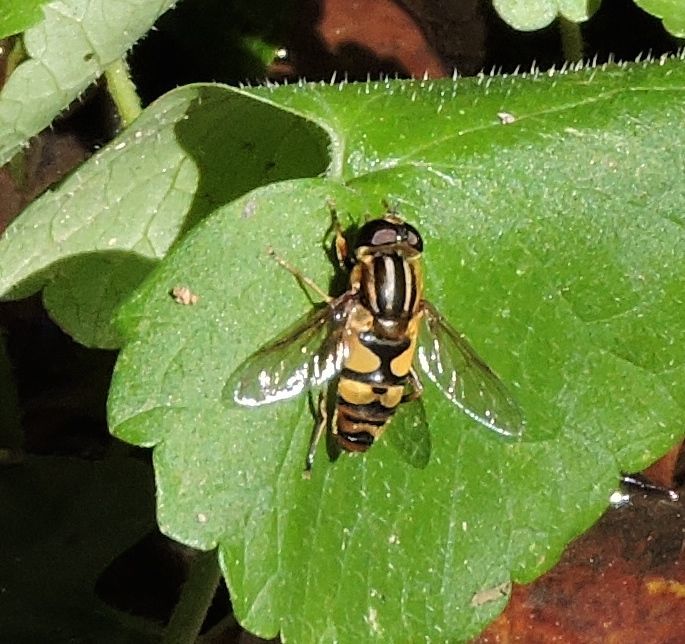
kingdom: Animalia
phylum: Arthropoda
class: Insecta
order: Diptera
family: Syrphidae
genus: Helophilus
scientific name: Helophilus fasciatus
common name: Narrow-headed marsh fly
